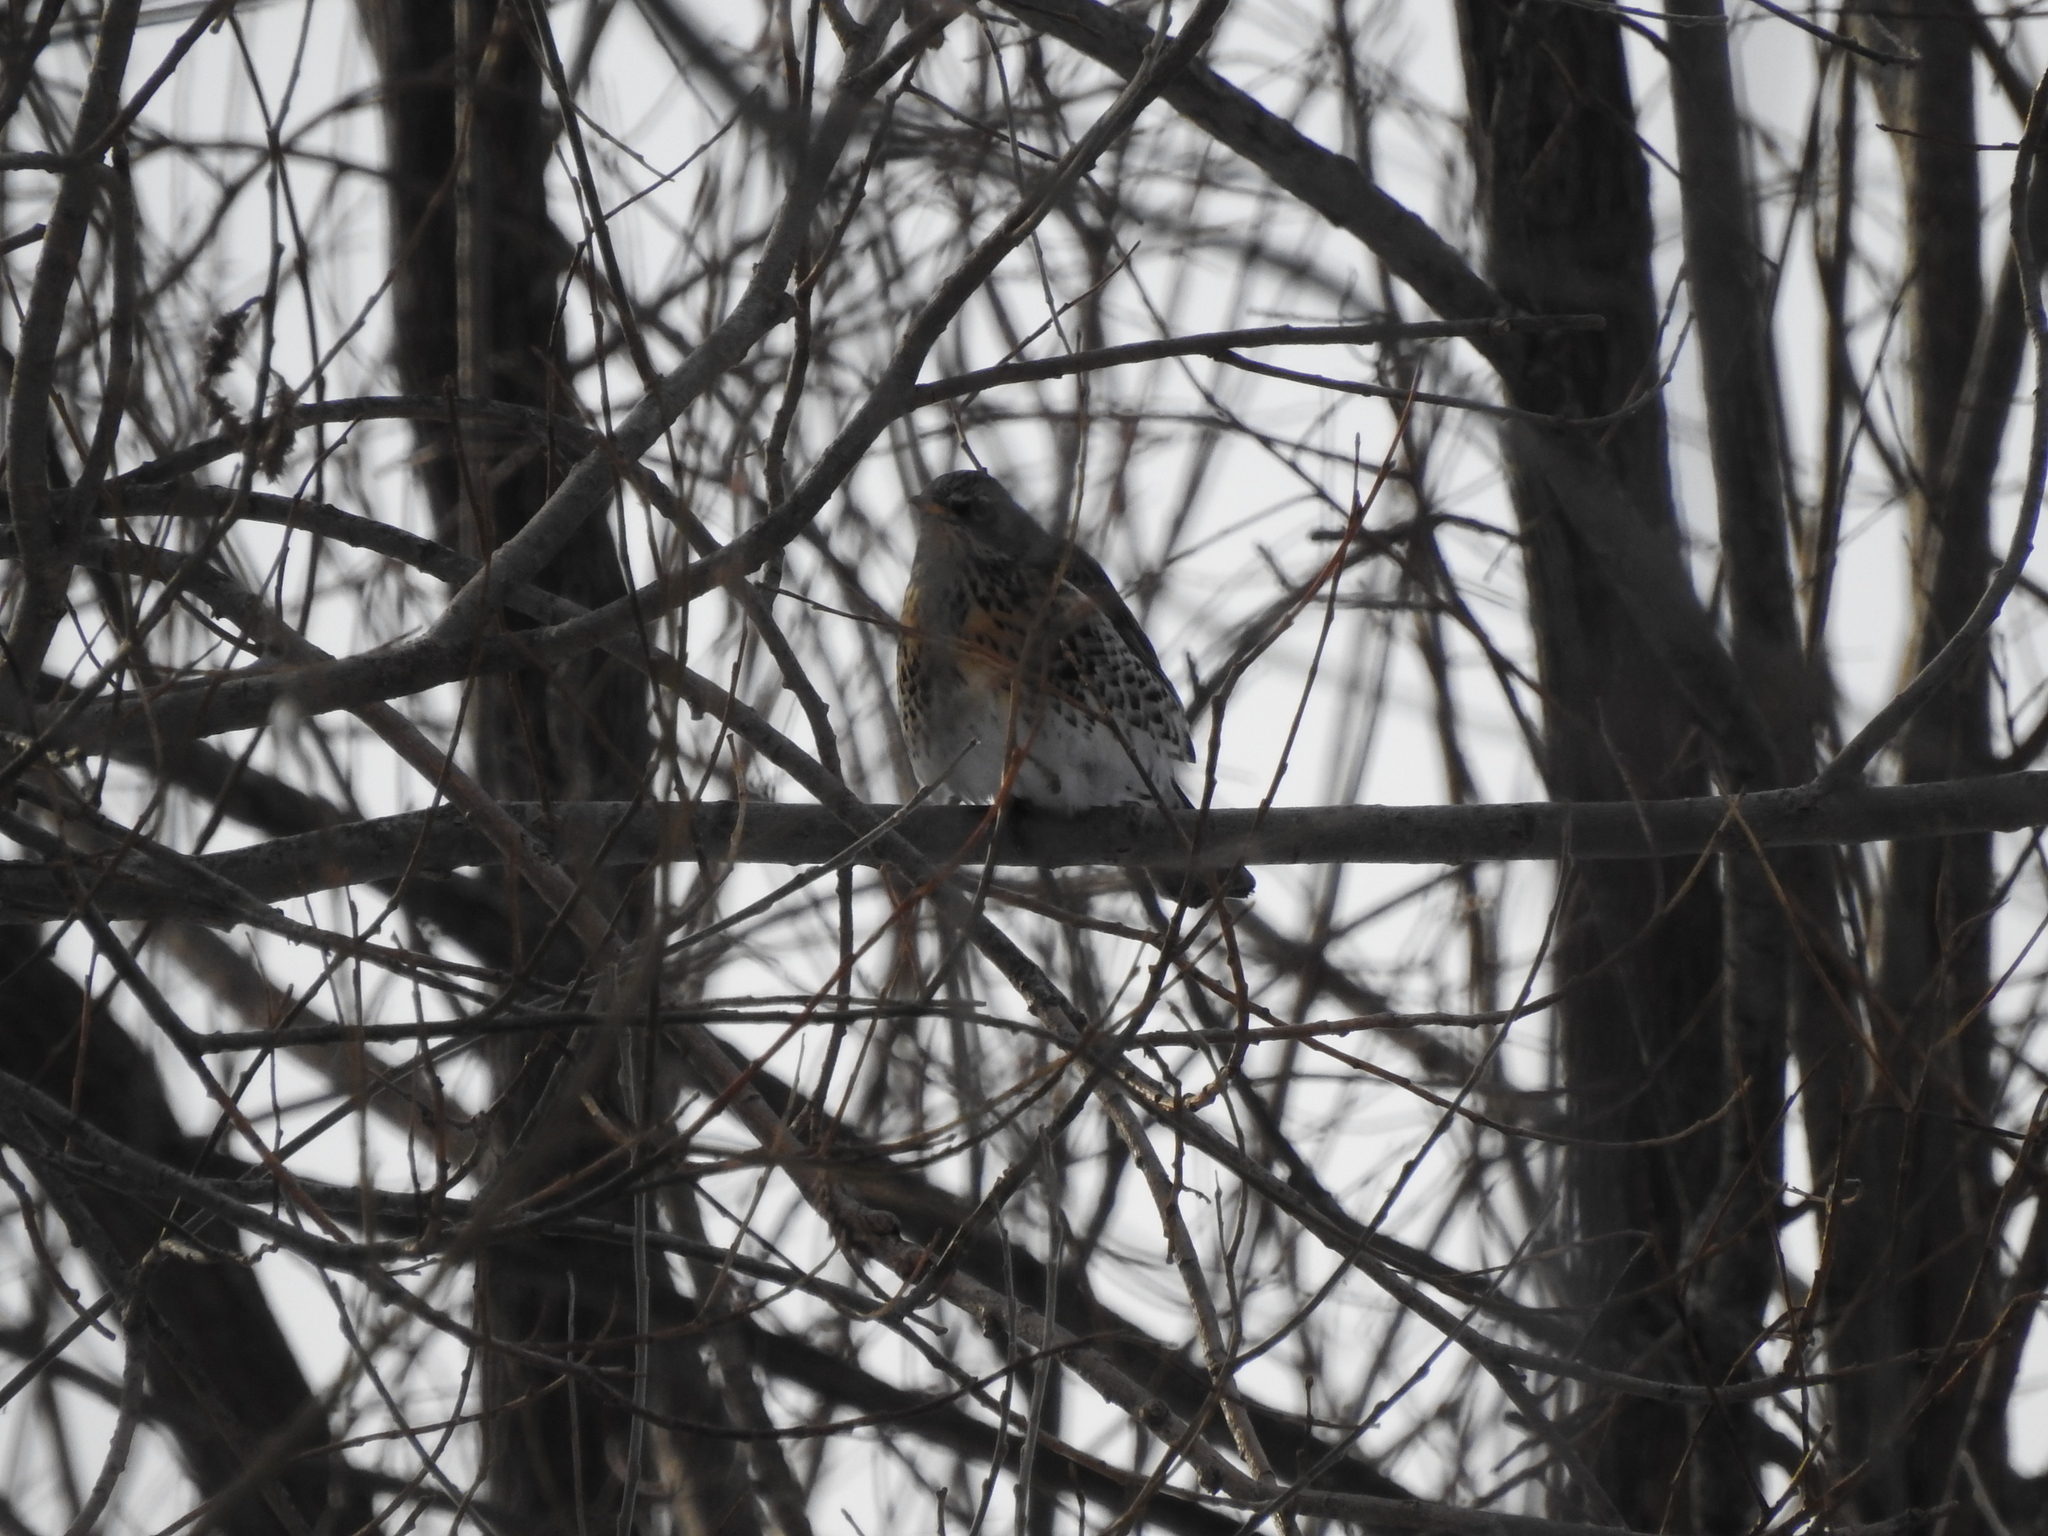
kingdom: Animalia
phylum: Chordata
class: Aves
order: Passeriformes
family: Turdidae
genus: Turdus
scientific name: Turdus pilaris
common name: Fieldfare
